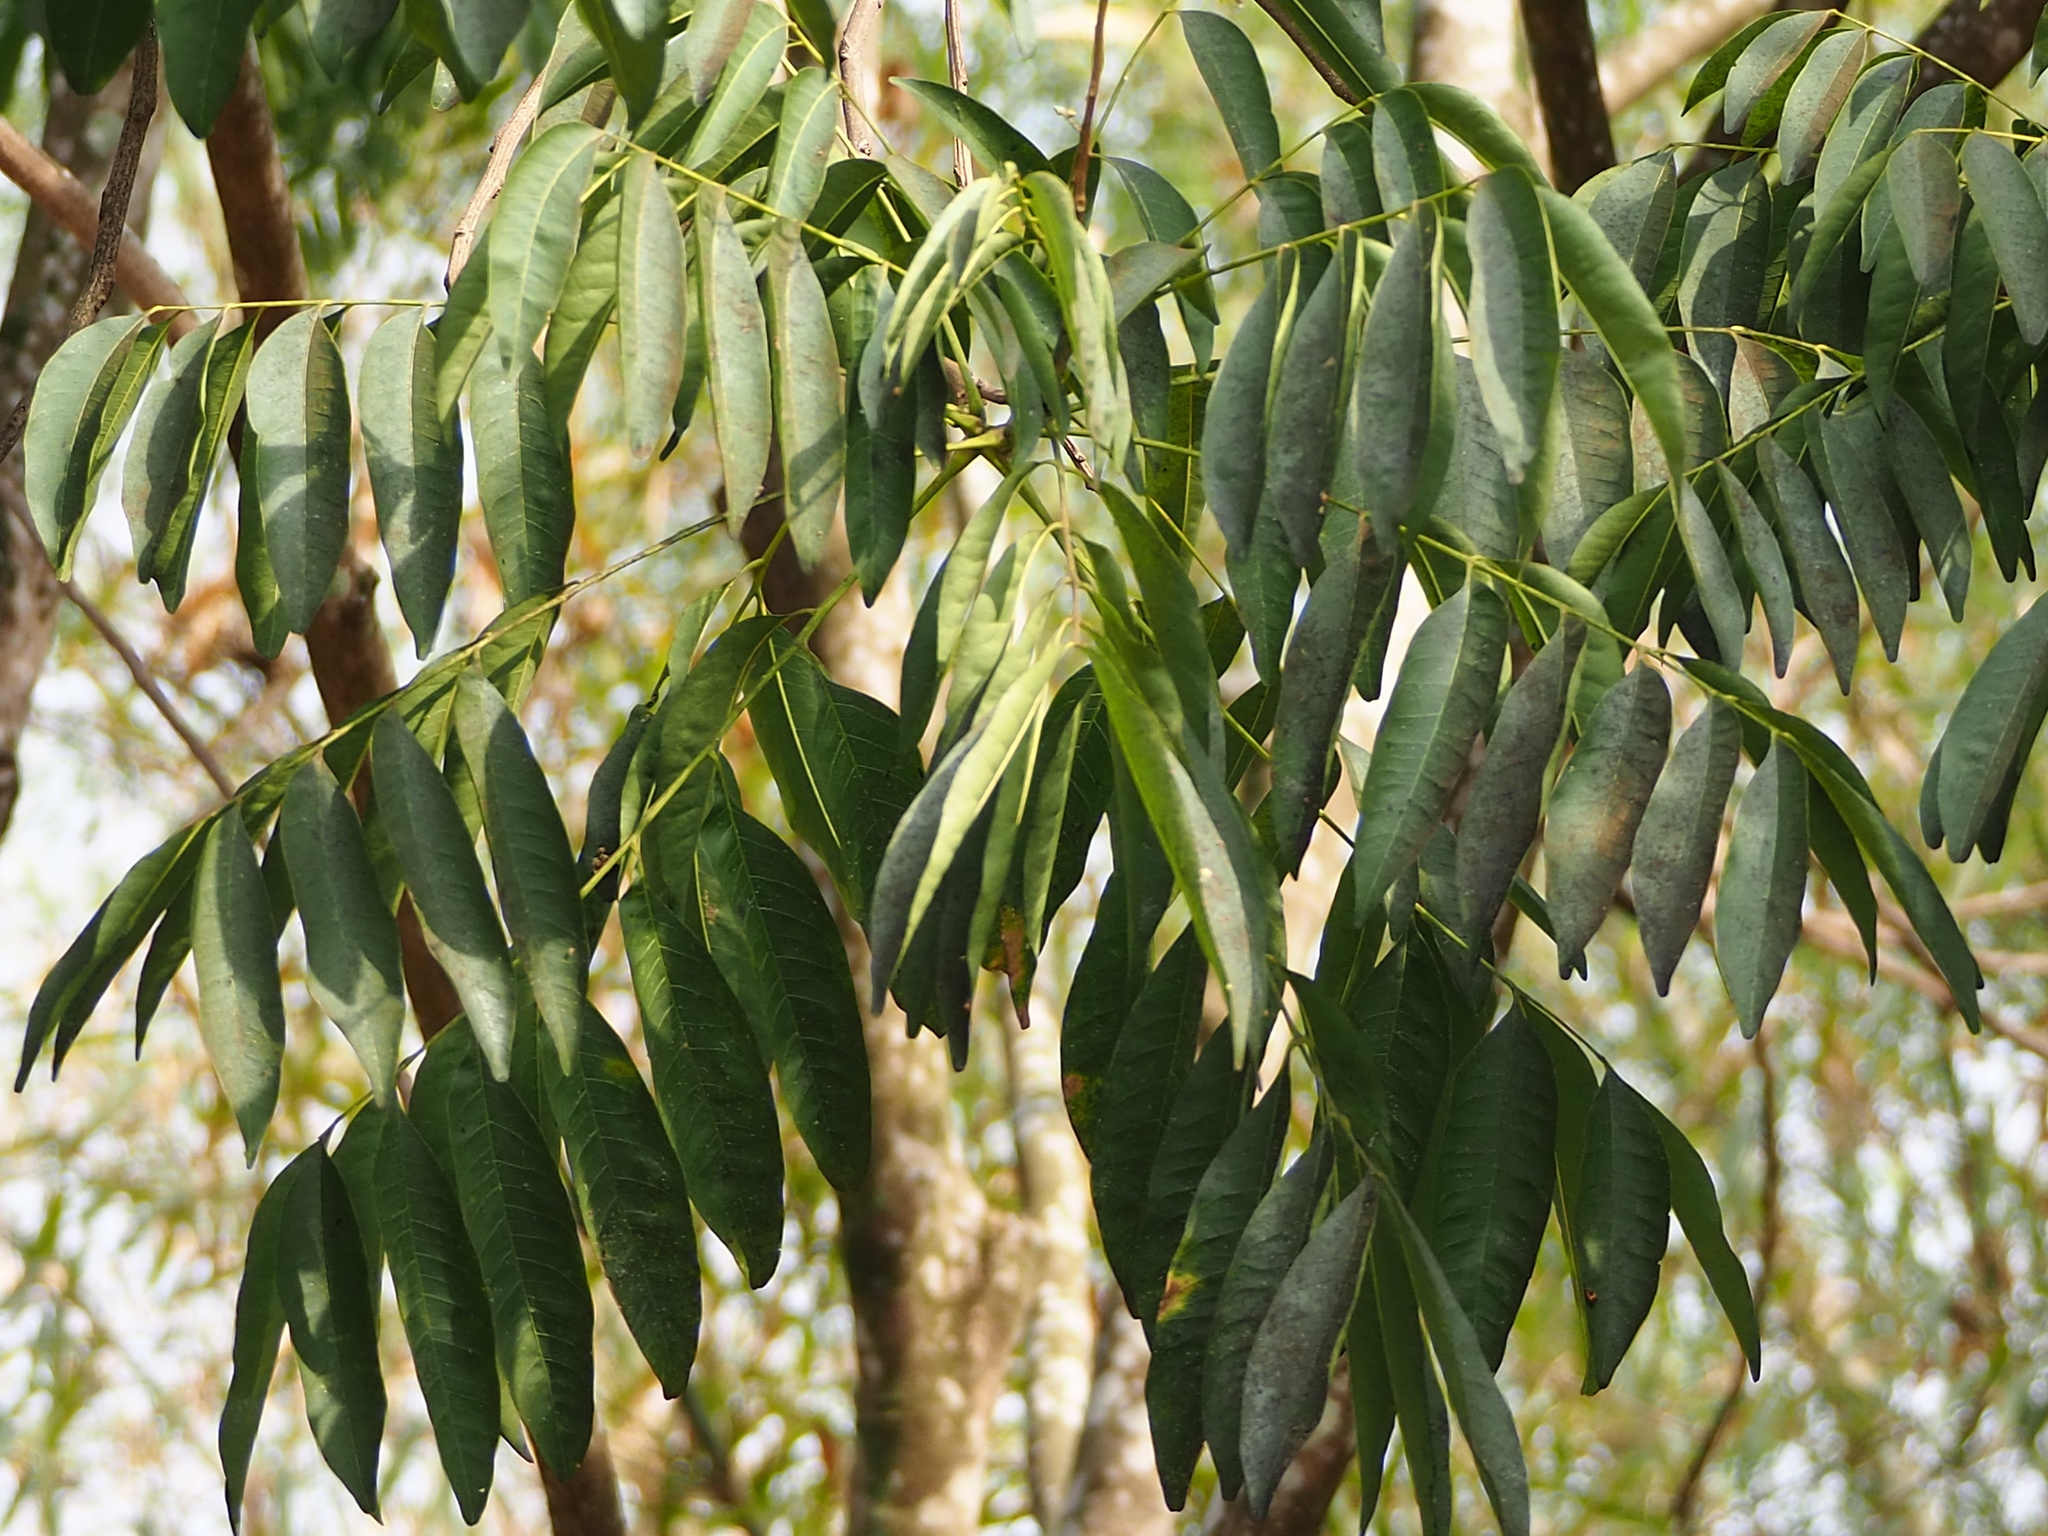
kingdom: Plantae
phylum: Tracheophyta
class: Magnoliopsida
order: Sapindales
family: Sapindaceae
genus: Sapindus
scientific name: Sapindus mukorossi
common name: Chinese soapberry
